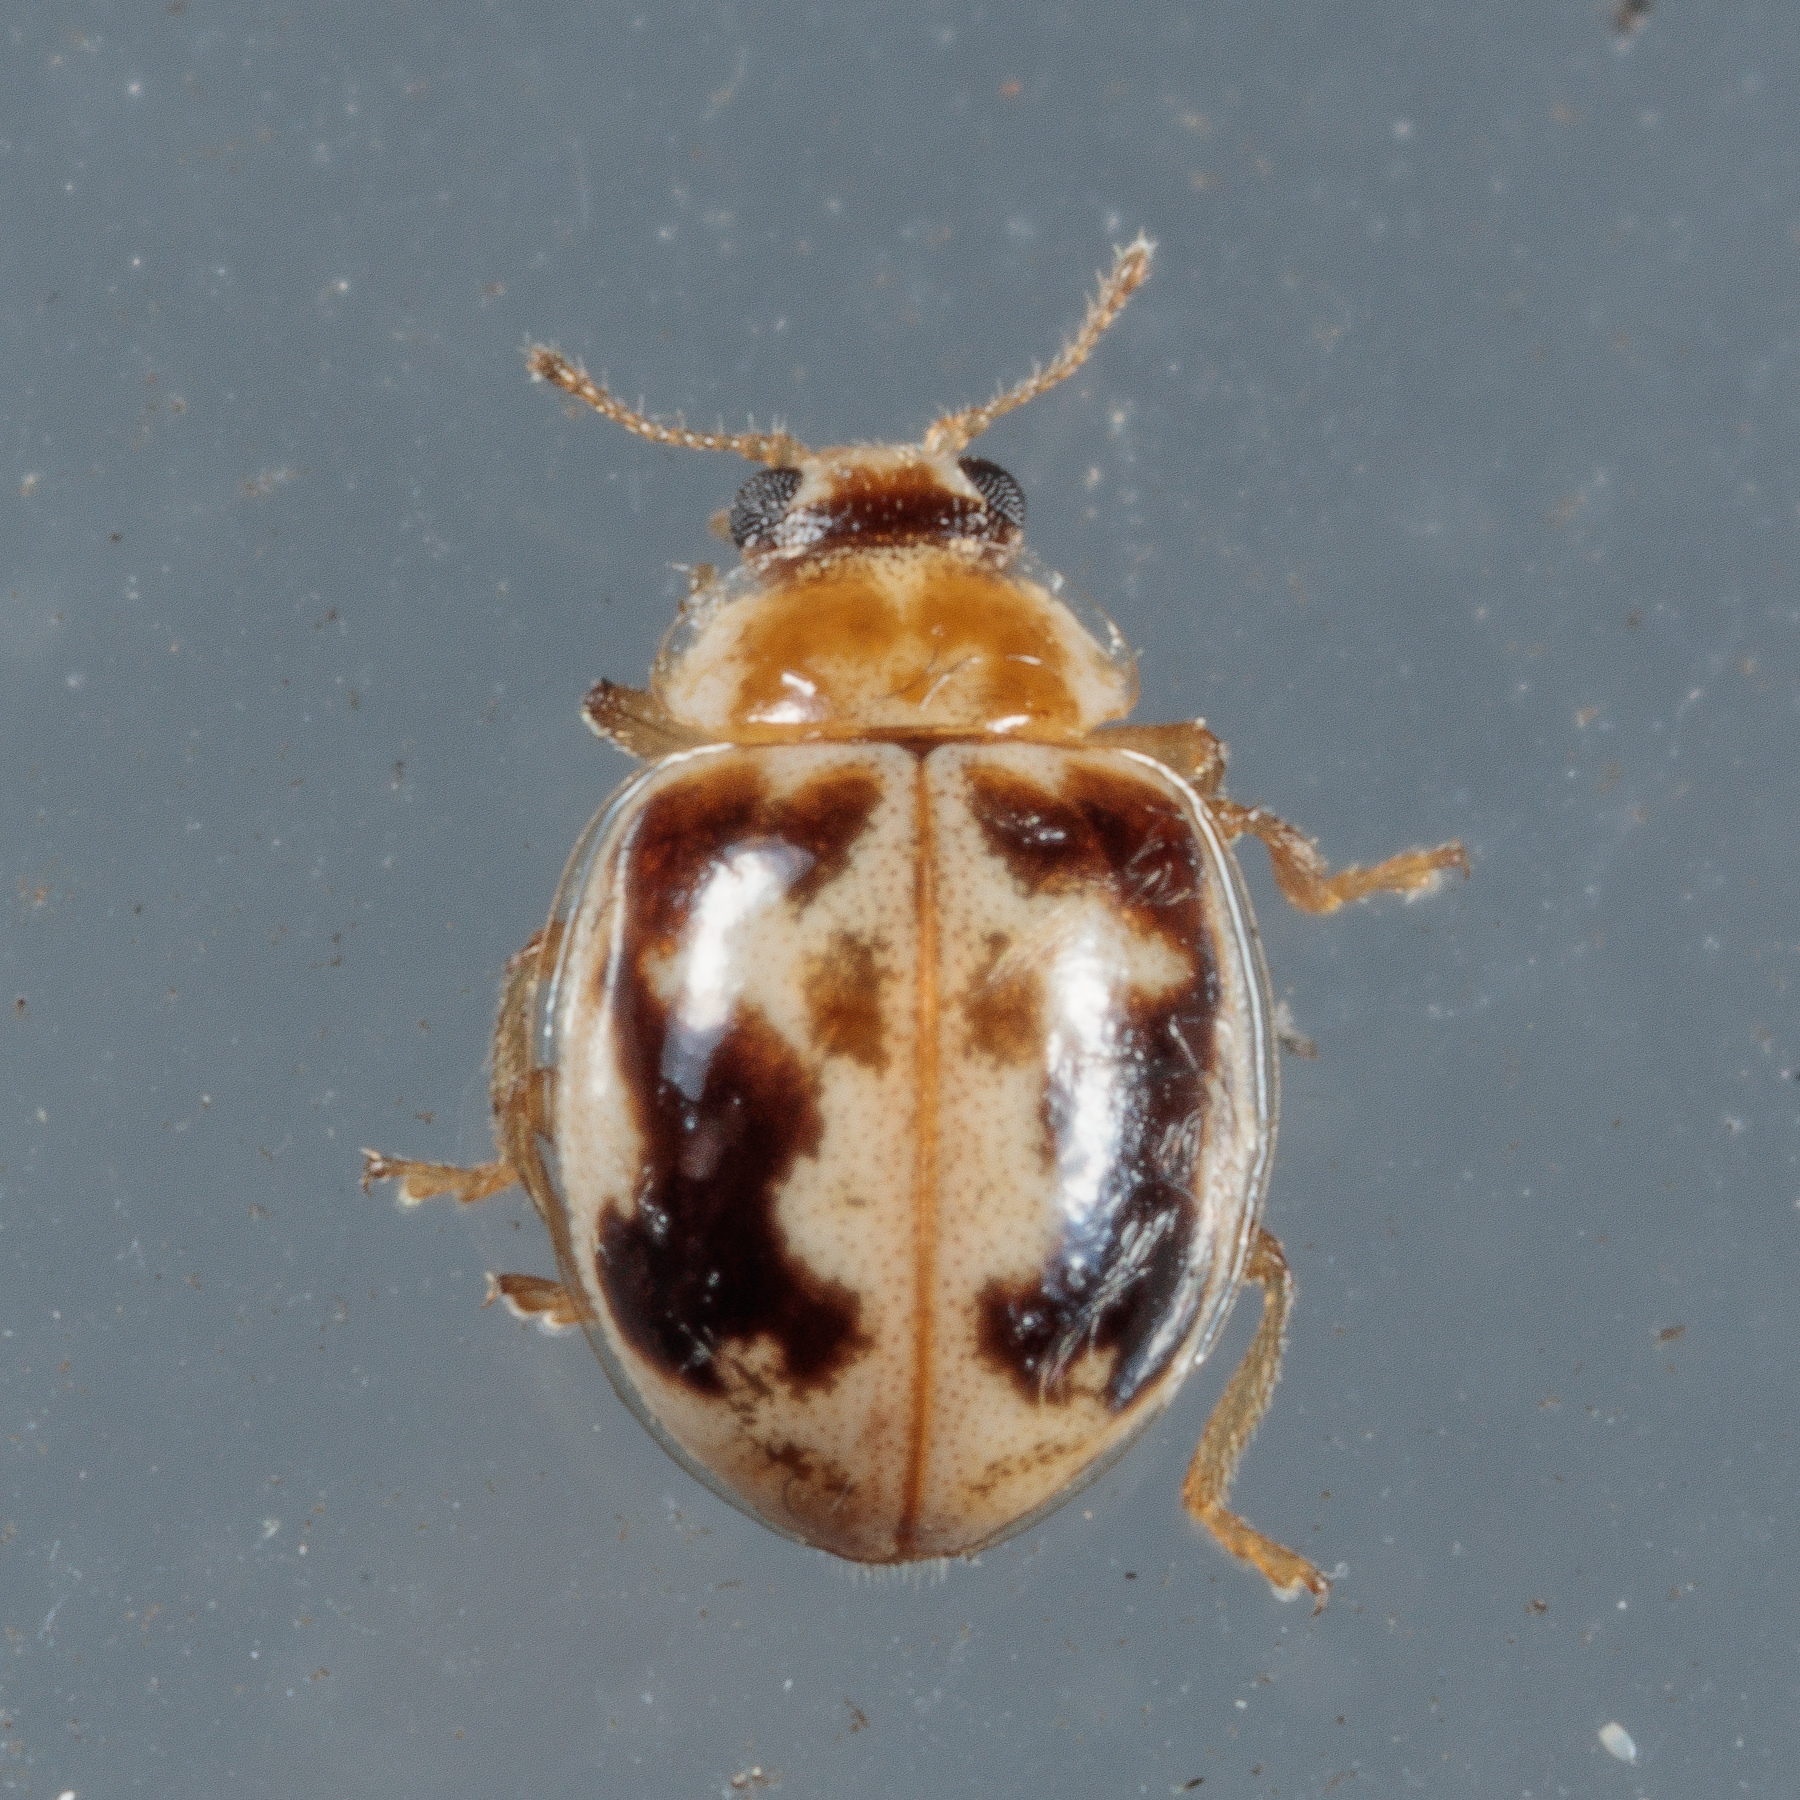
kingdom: Animalia
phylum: Arthropoda
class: Insecta
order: Coleoptera
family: Coccinellidae
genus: Psyllobora
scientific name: Psyllobora renifer
